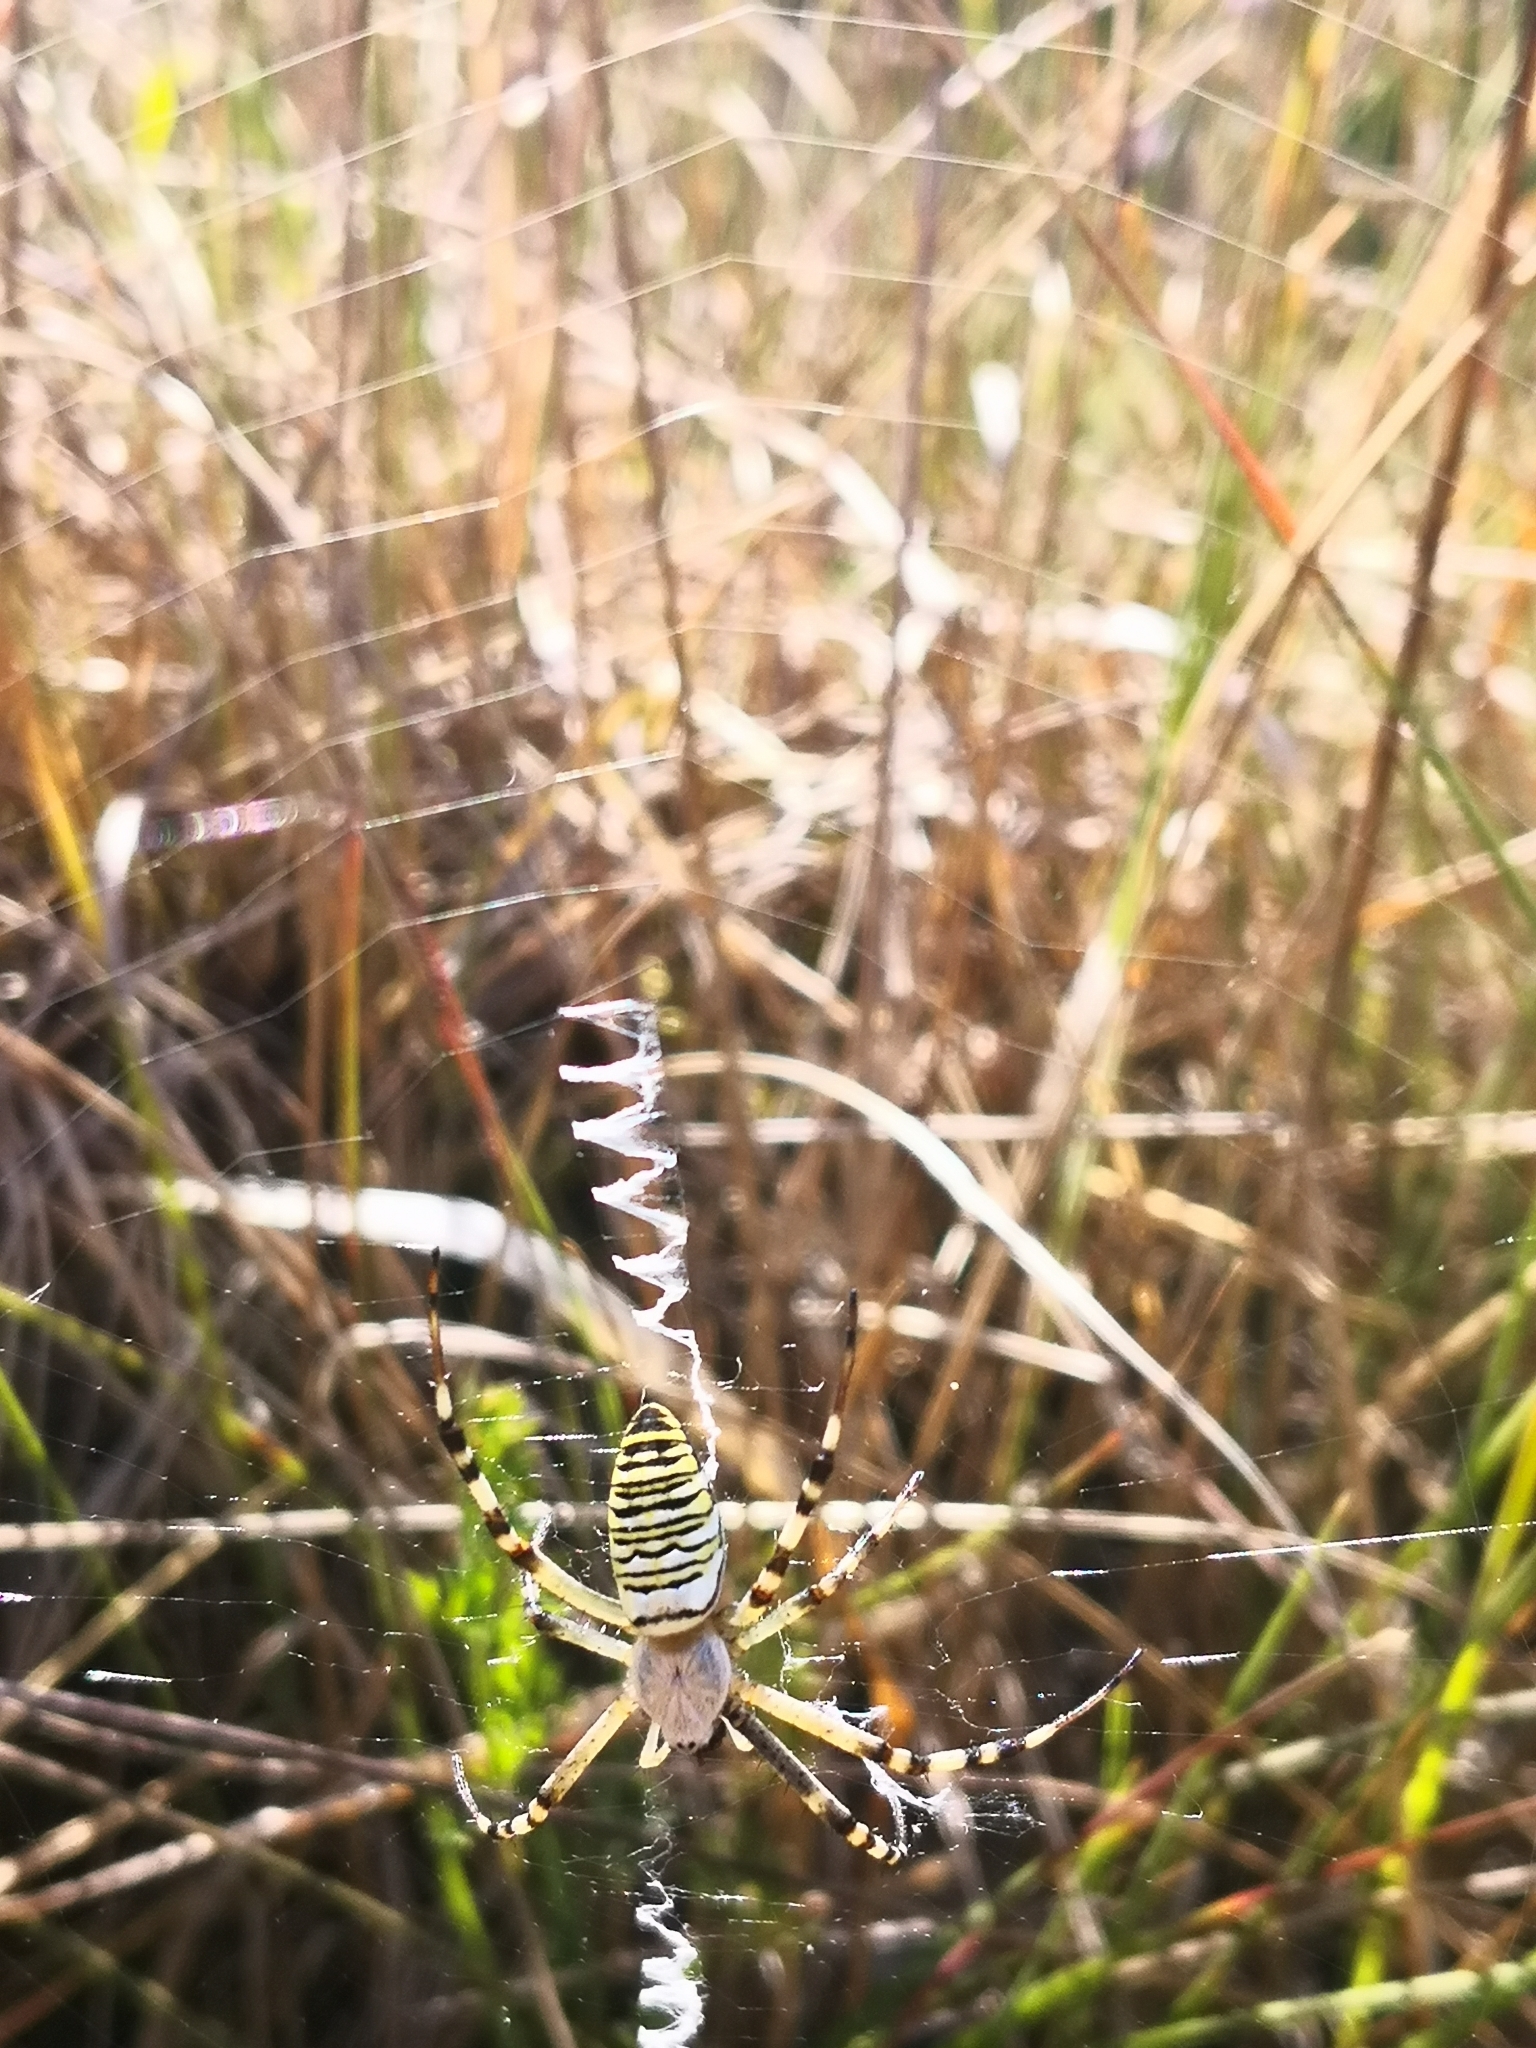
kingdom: Animalia
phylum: Arthropoda
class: Arachnida
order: Araneae
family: Araneidae
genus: Argiope
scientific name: Argiope bruennichi
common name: Wasp spider
